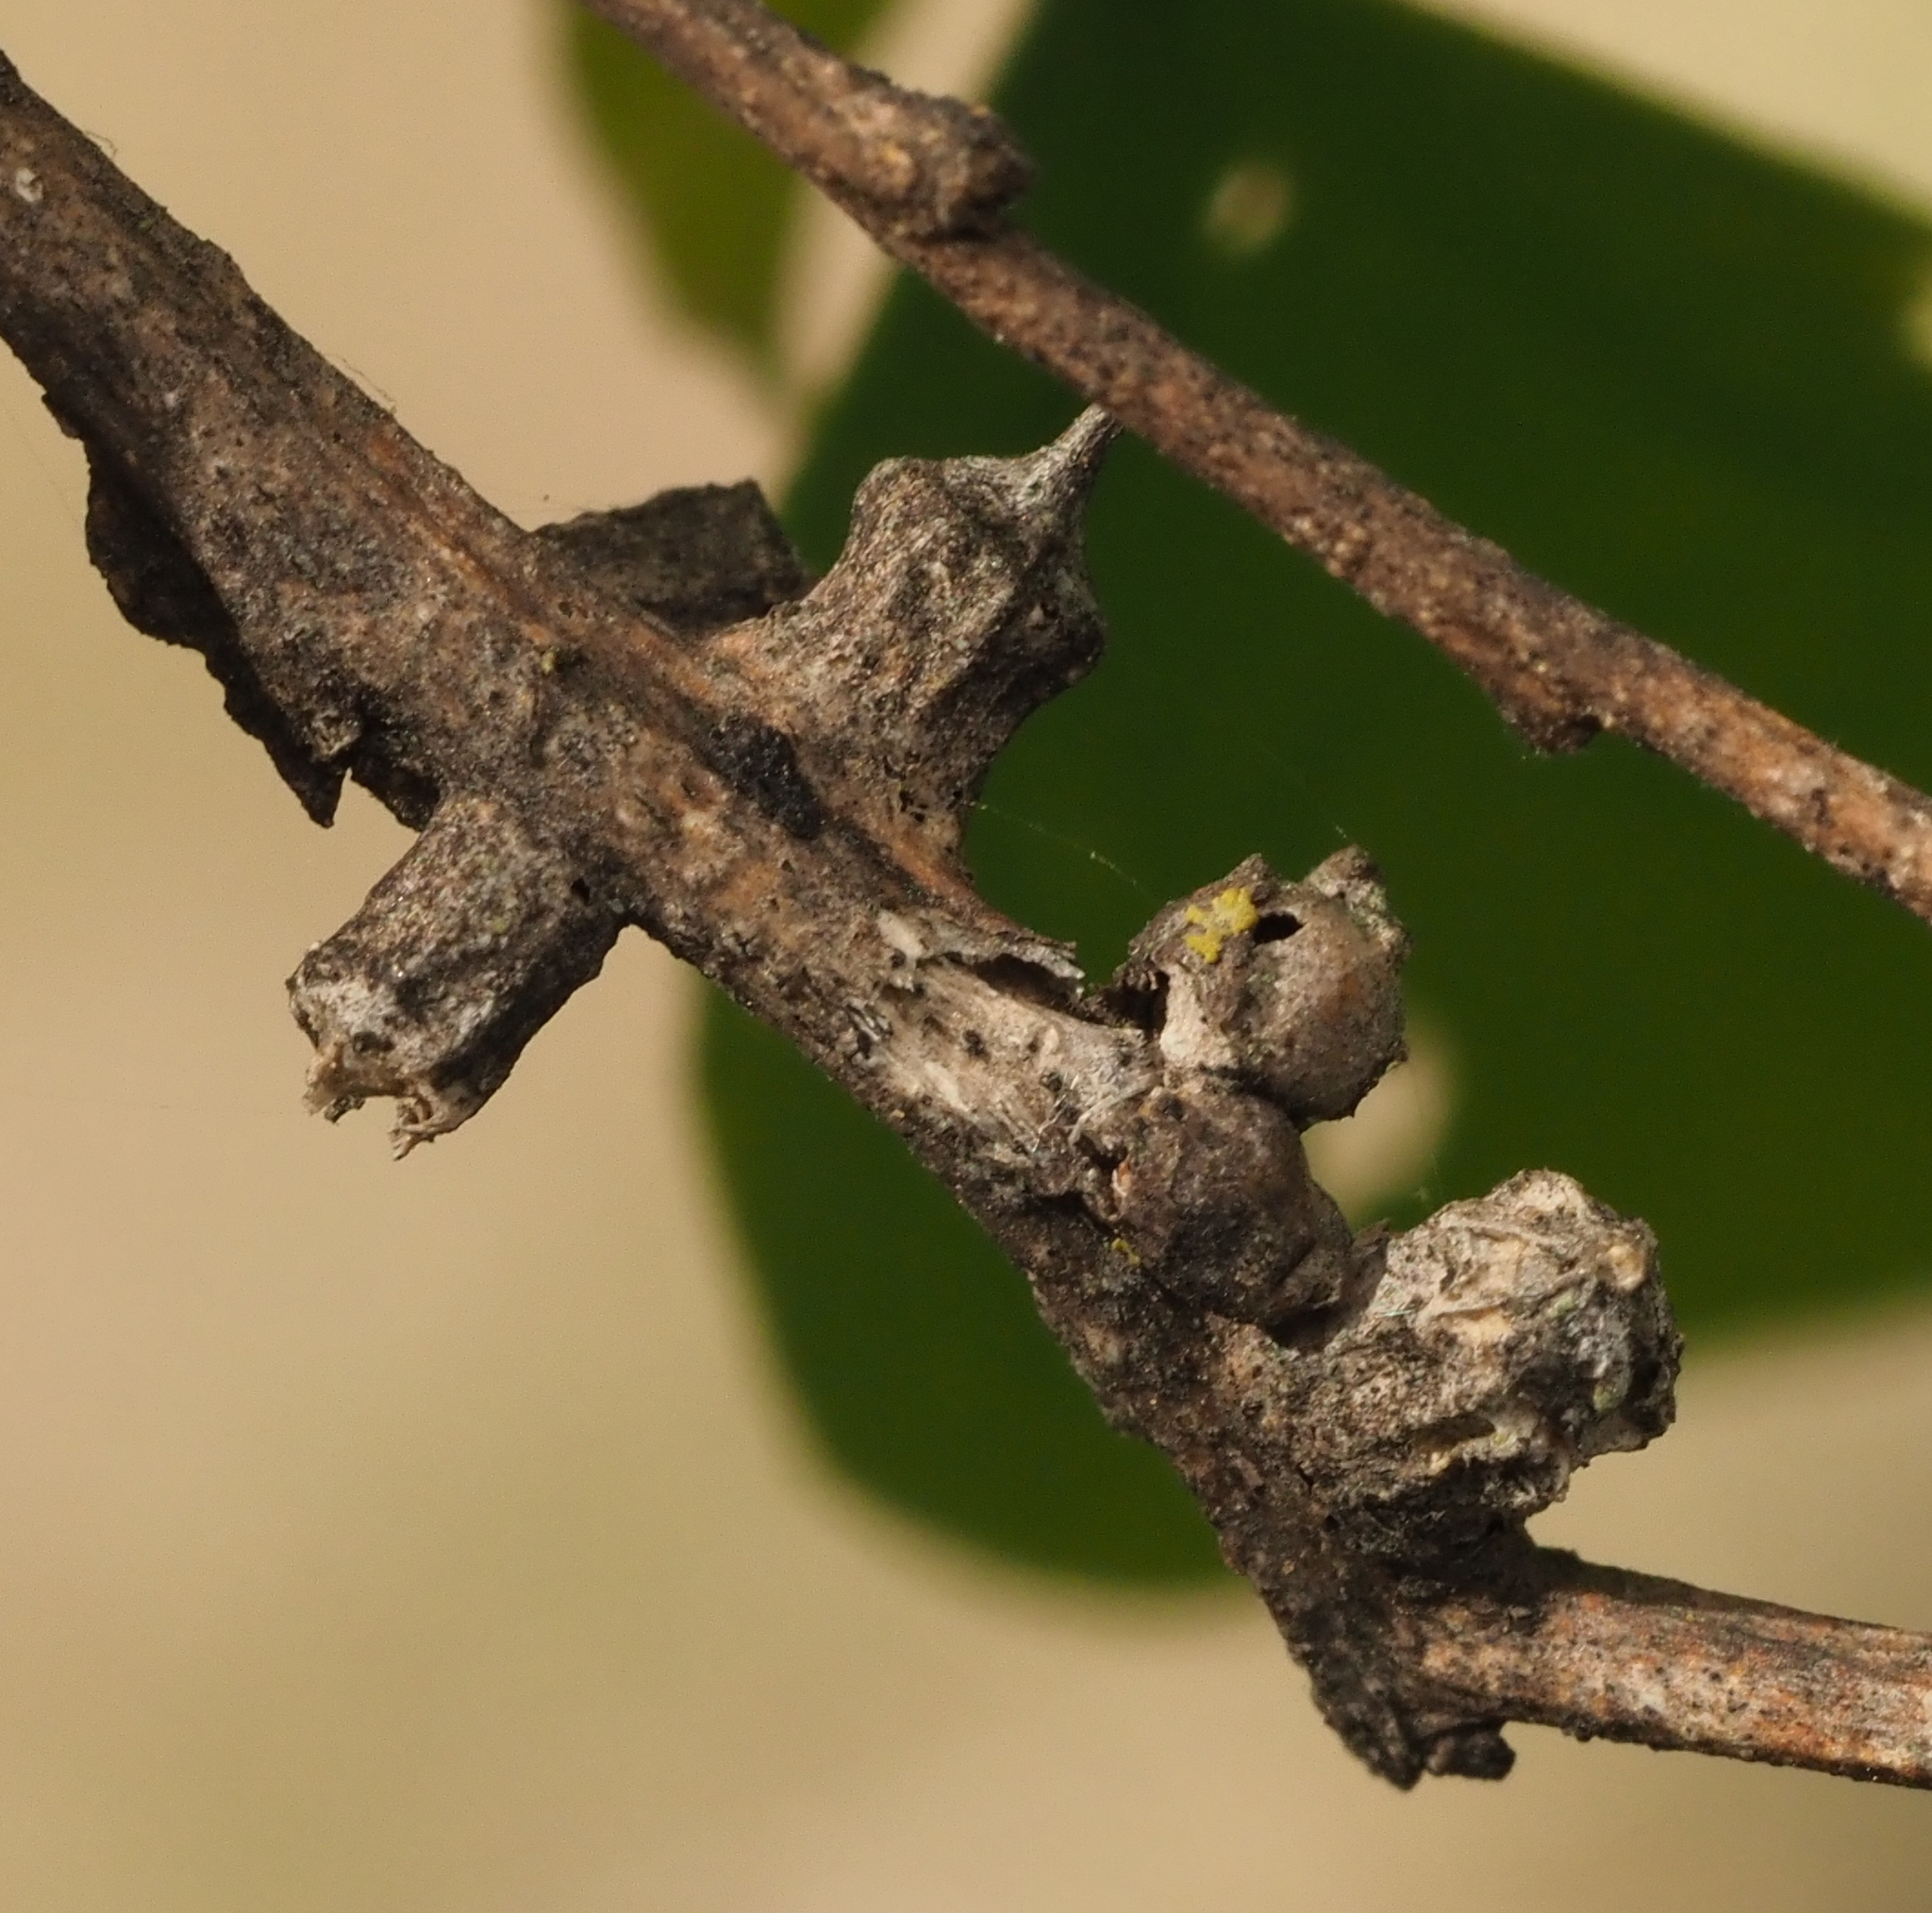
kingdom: Animalia
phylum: Arthropoda
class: Insecta
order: Diptera
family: Cecidomyiidae
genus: Celticecis
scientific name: Celticecis ramicola
